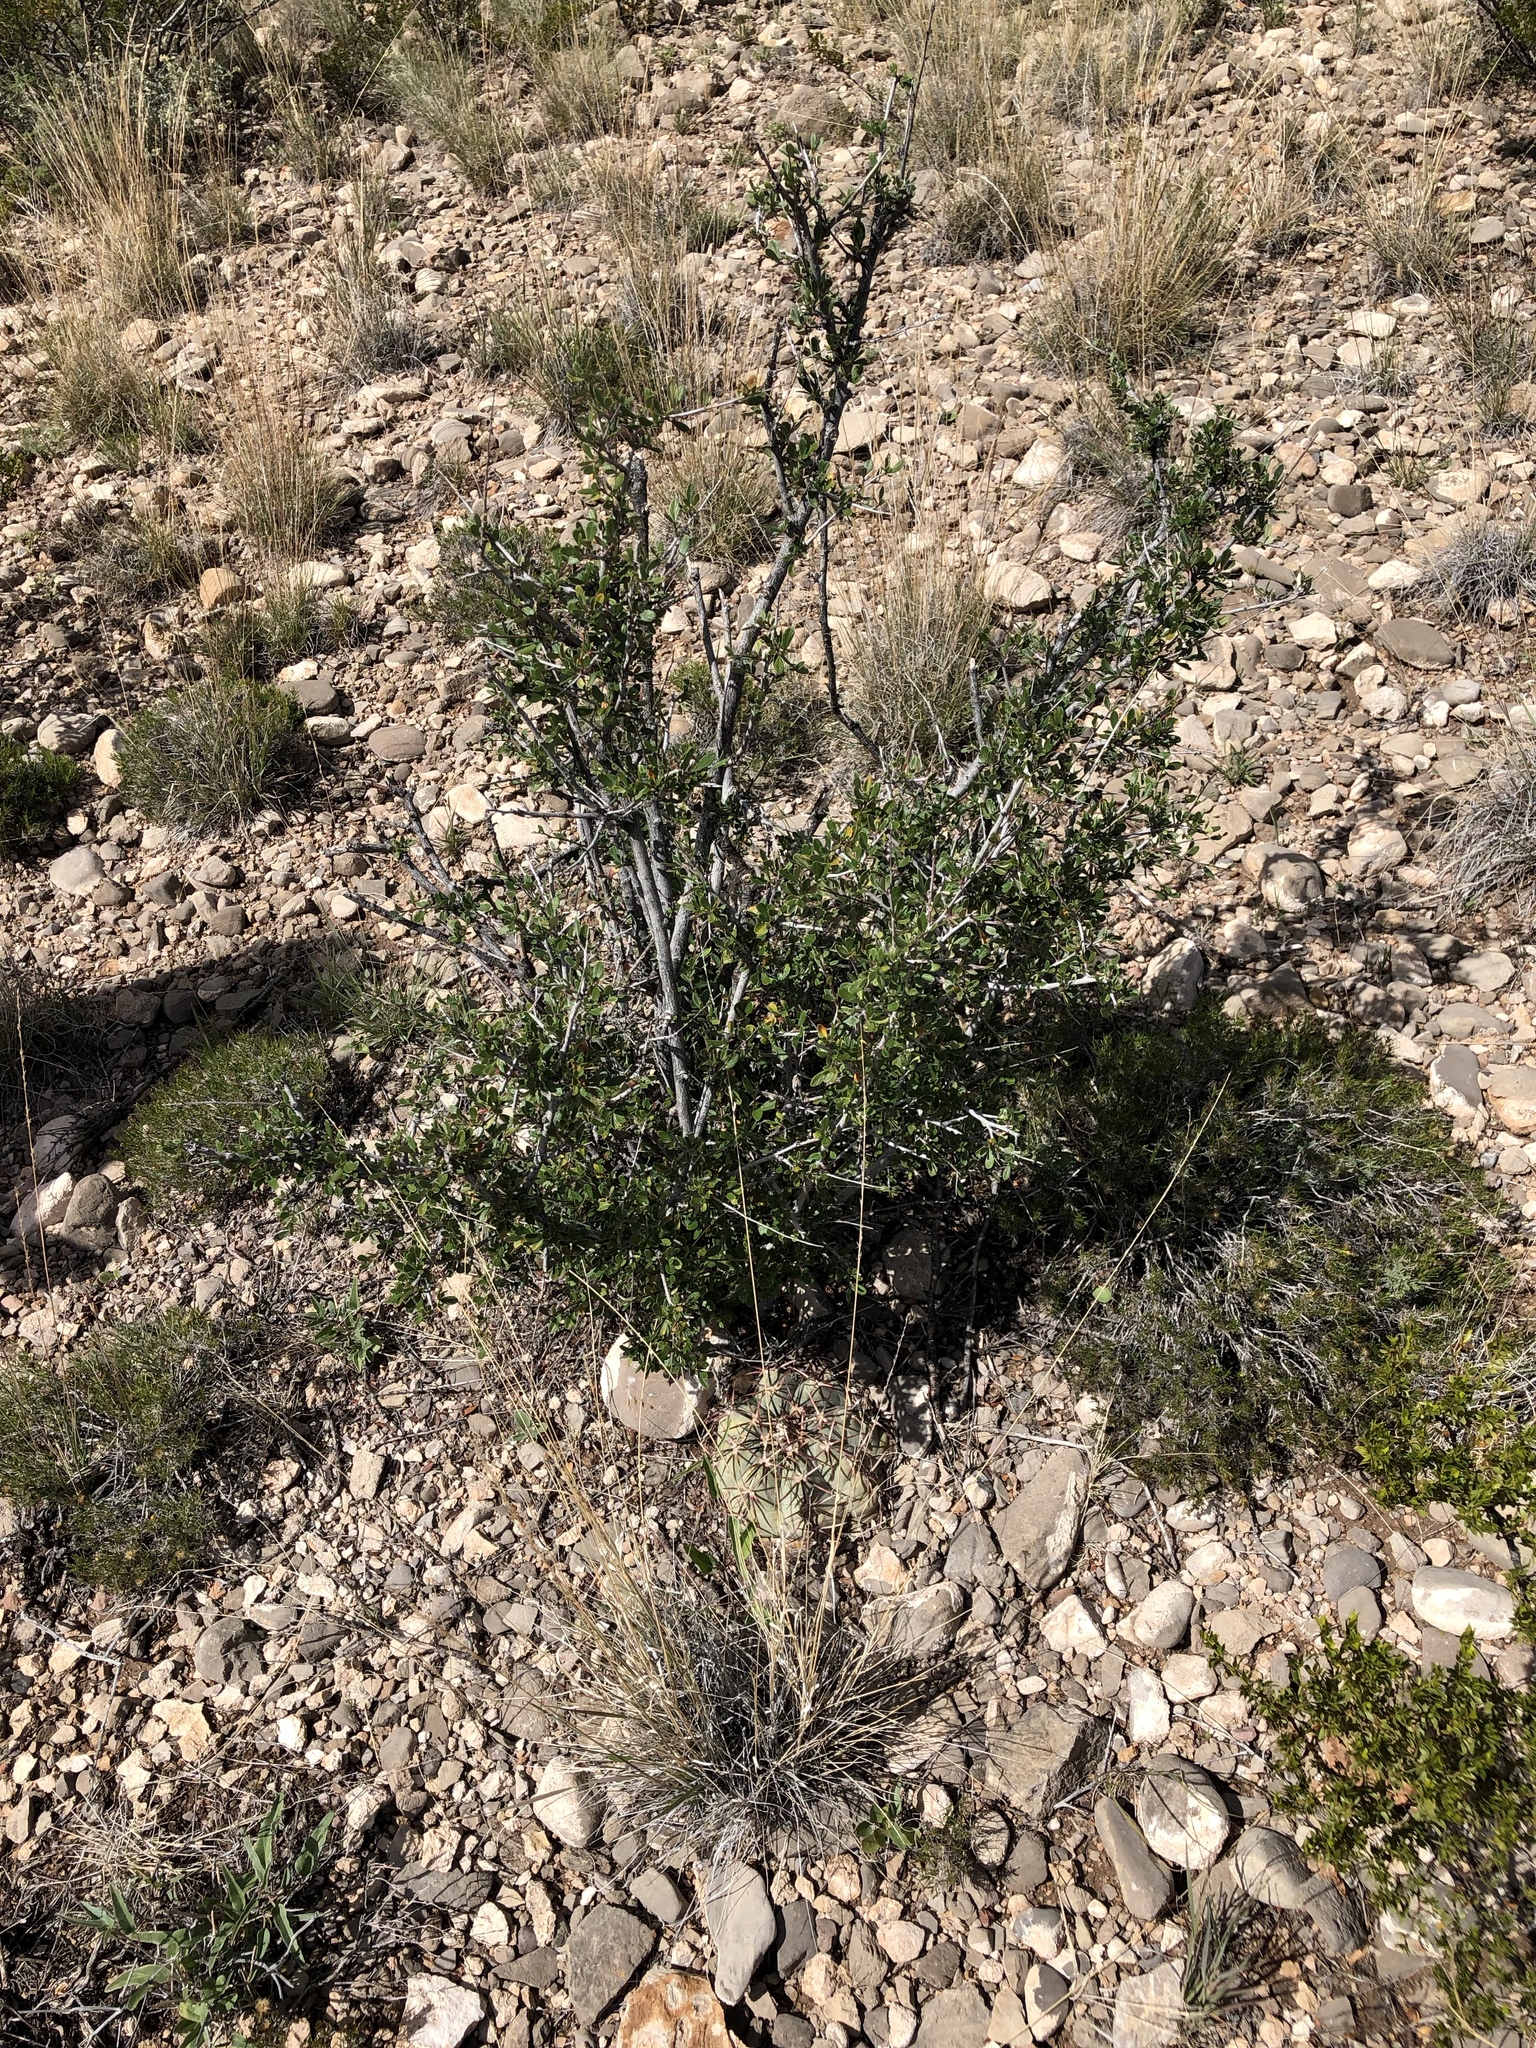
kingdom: Plantae
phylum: Tracheophyta
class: Magnoliopsida
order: Rosales
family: Rosaceae
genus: Cercocarpus
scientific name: Cercocarpus breviflorus
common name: Wright's mountain-mahogany
